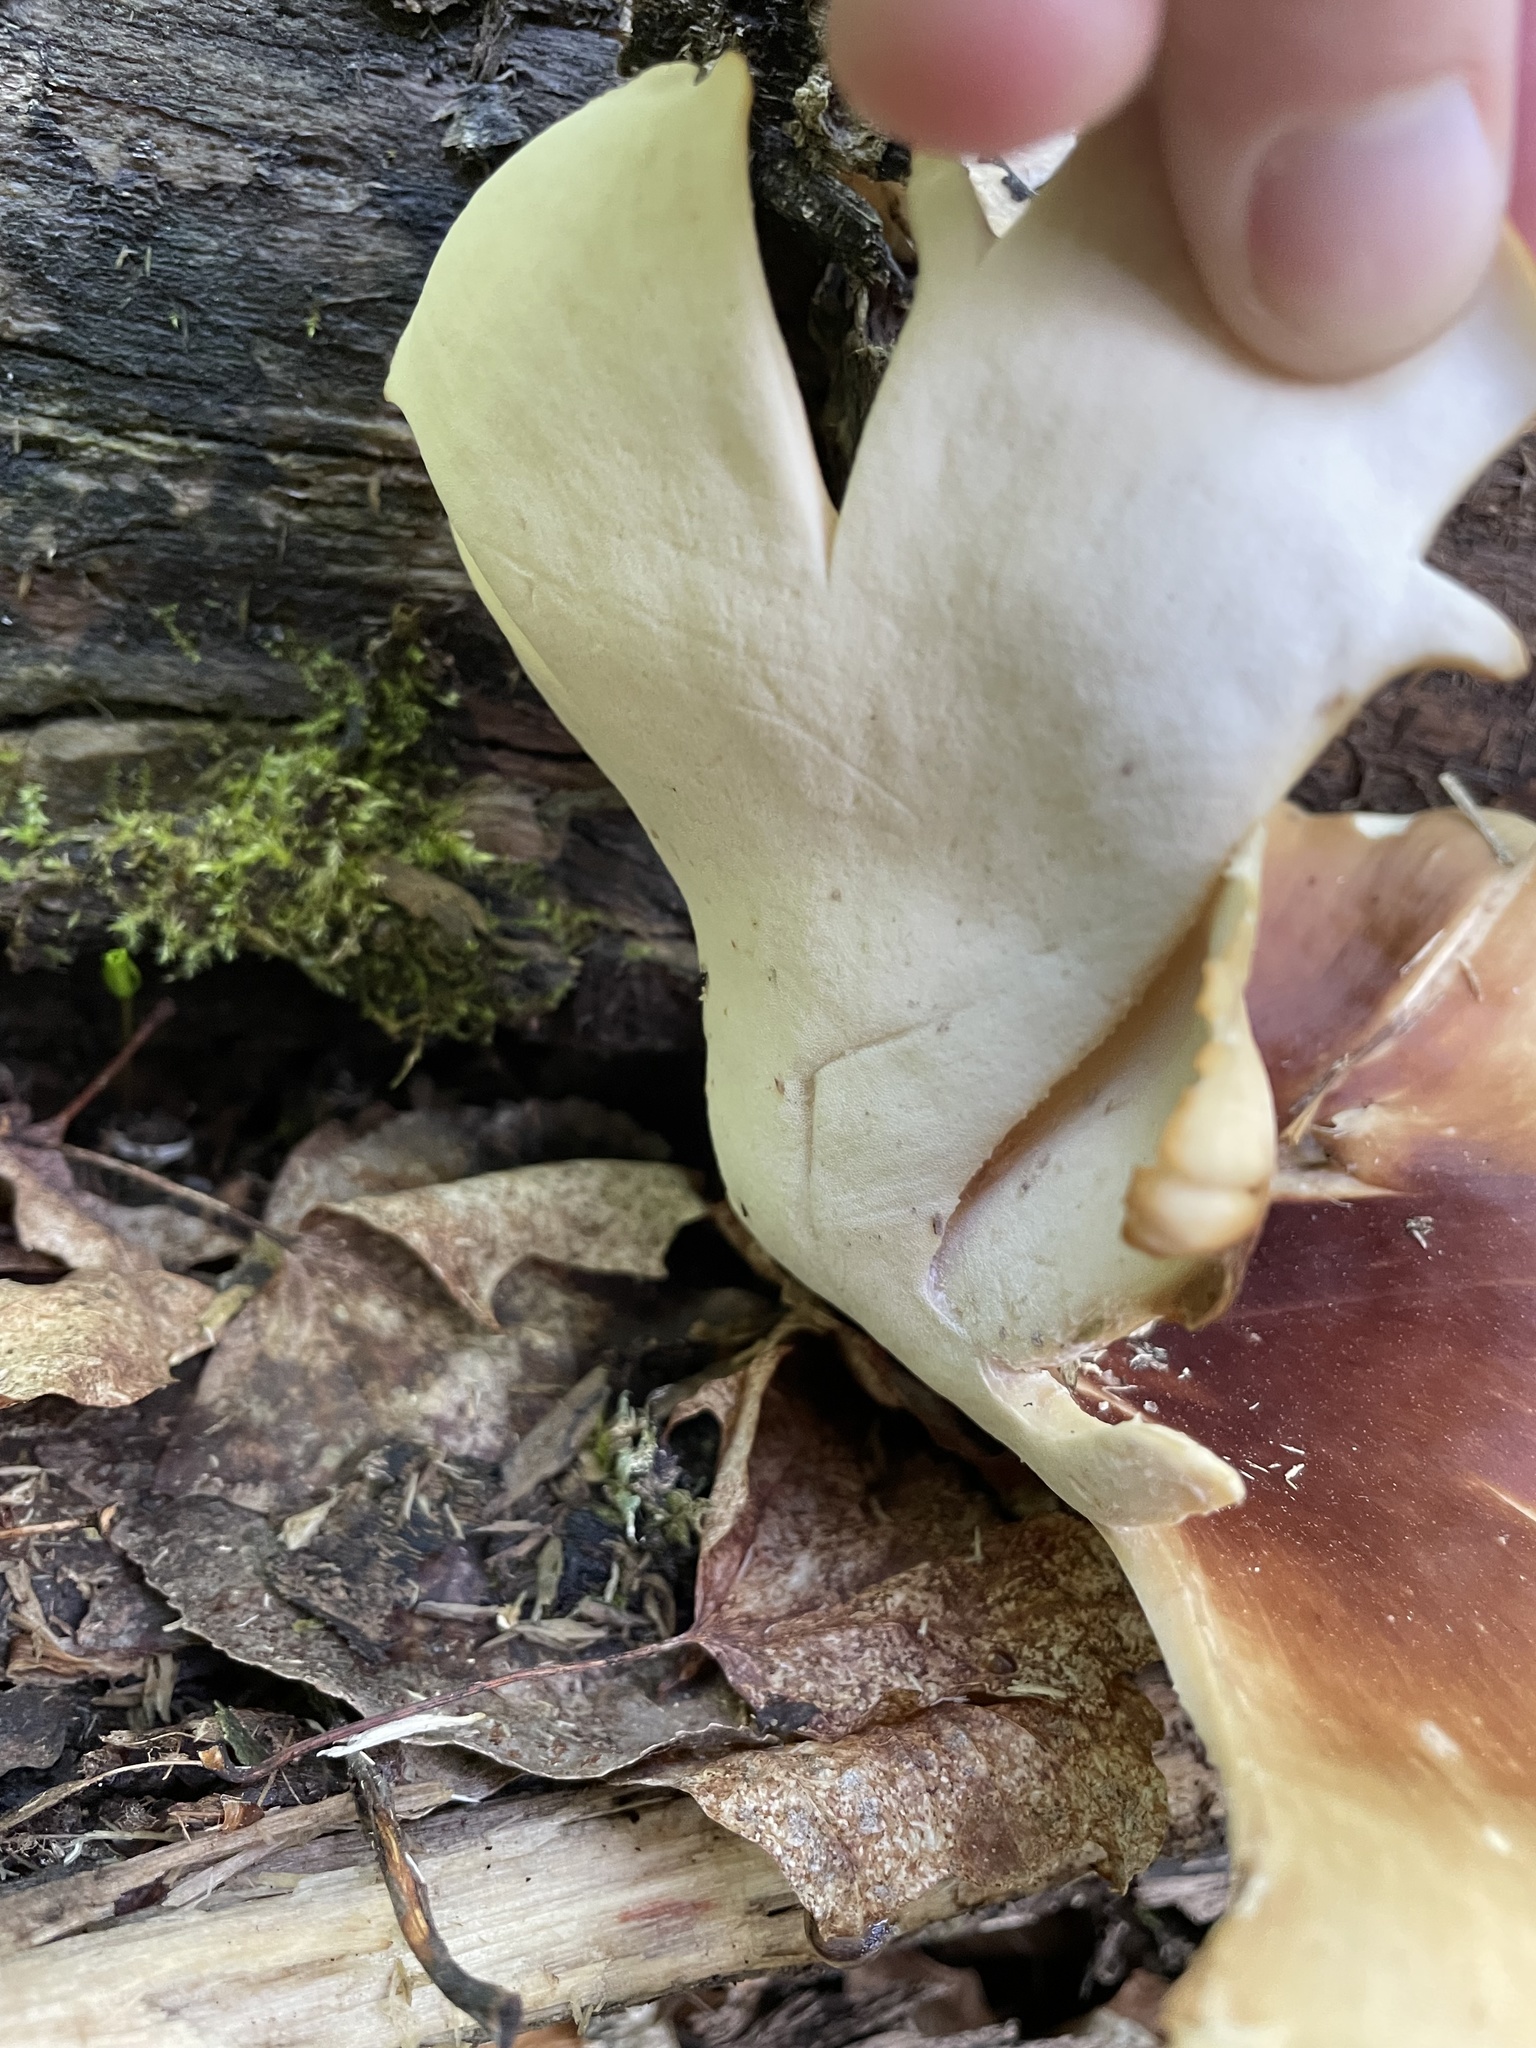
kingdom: Fungi
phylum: Basidiomycota
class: Agaricomycetes
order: Polyporales
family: Polyporaceae
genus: Picipes
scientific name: Picipes badius
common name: Bay polypore
